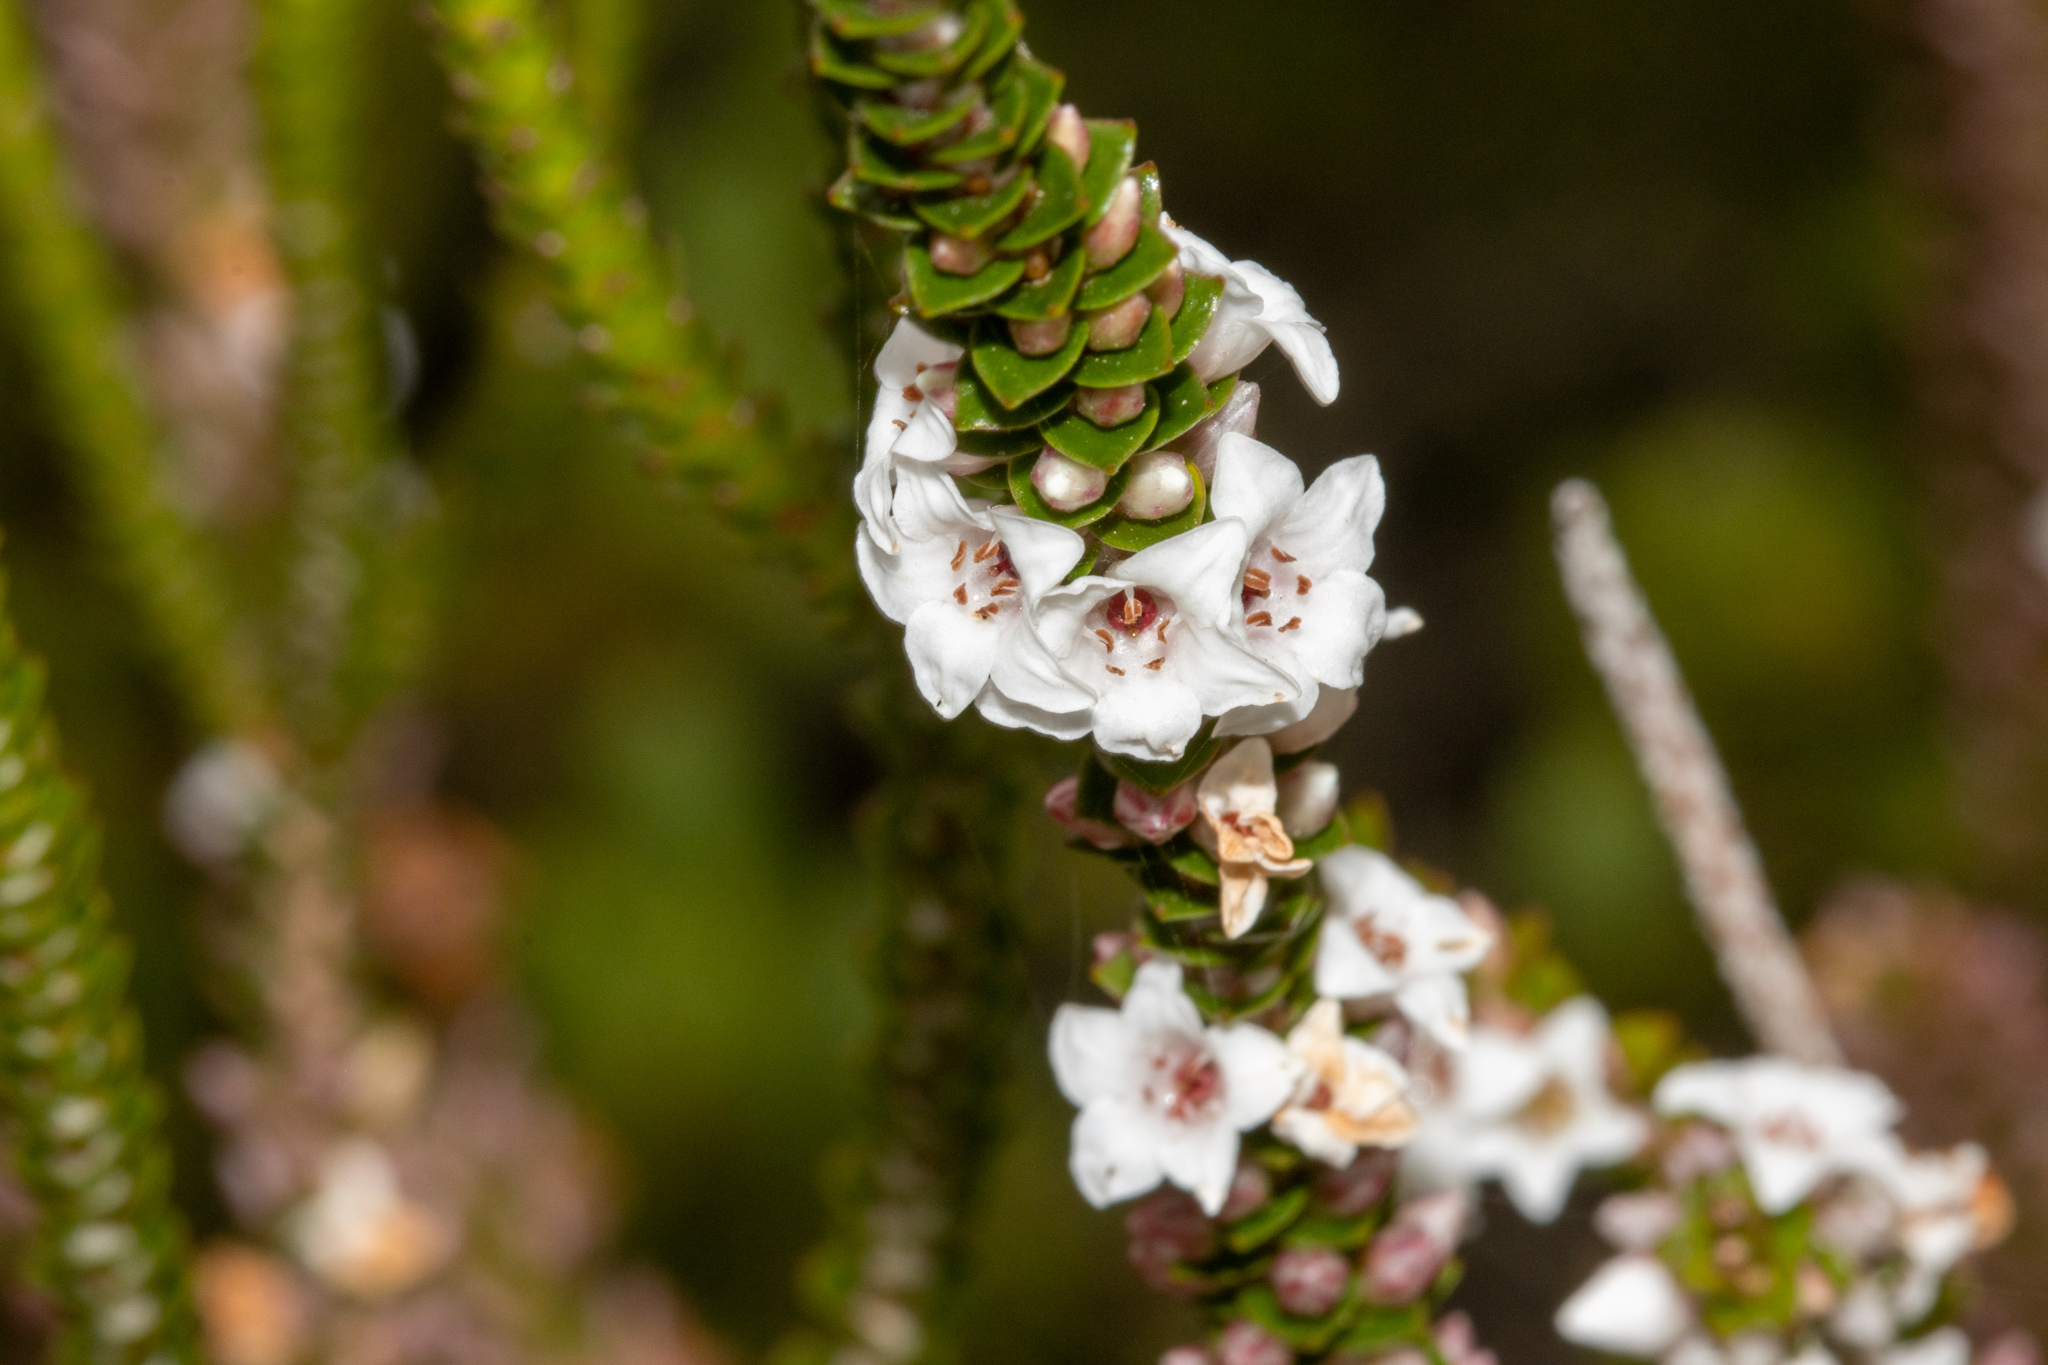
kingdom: Plantae
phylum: Tracheophyta
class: Magnoliopsida
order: Ericales
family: Ericaceae
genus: Epacris
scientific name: Epacris microphylla
